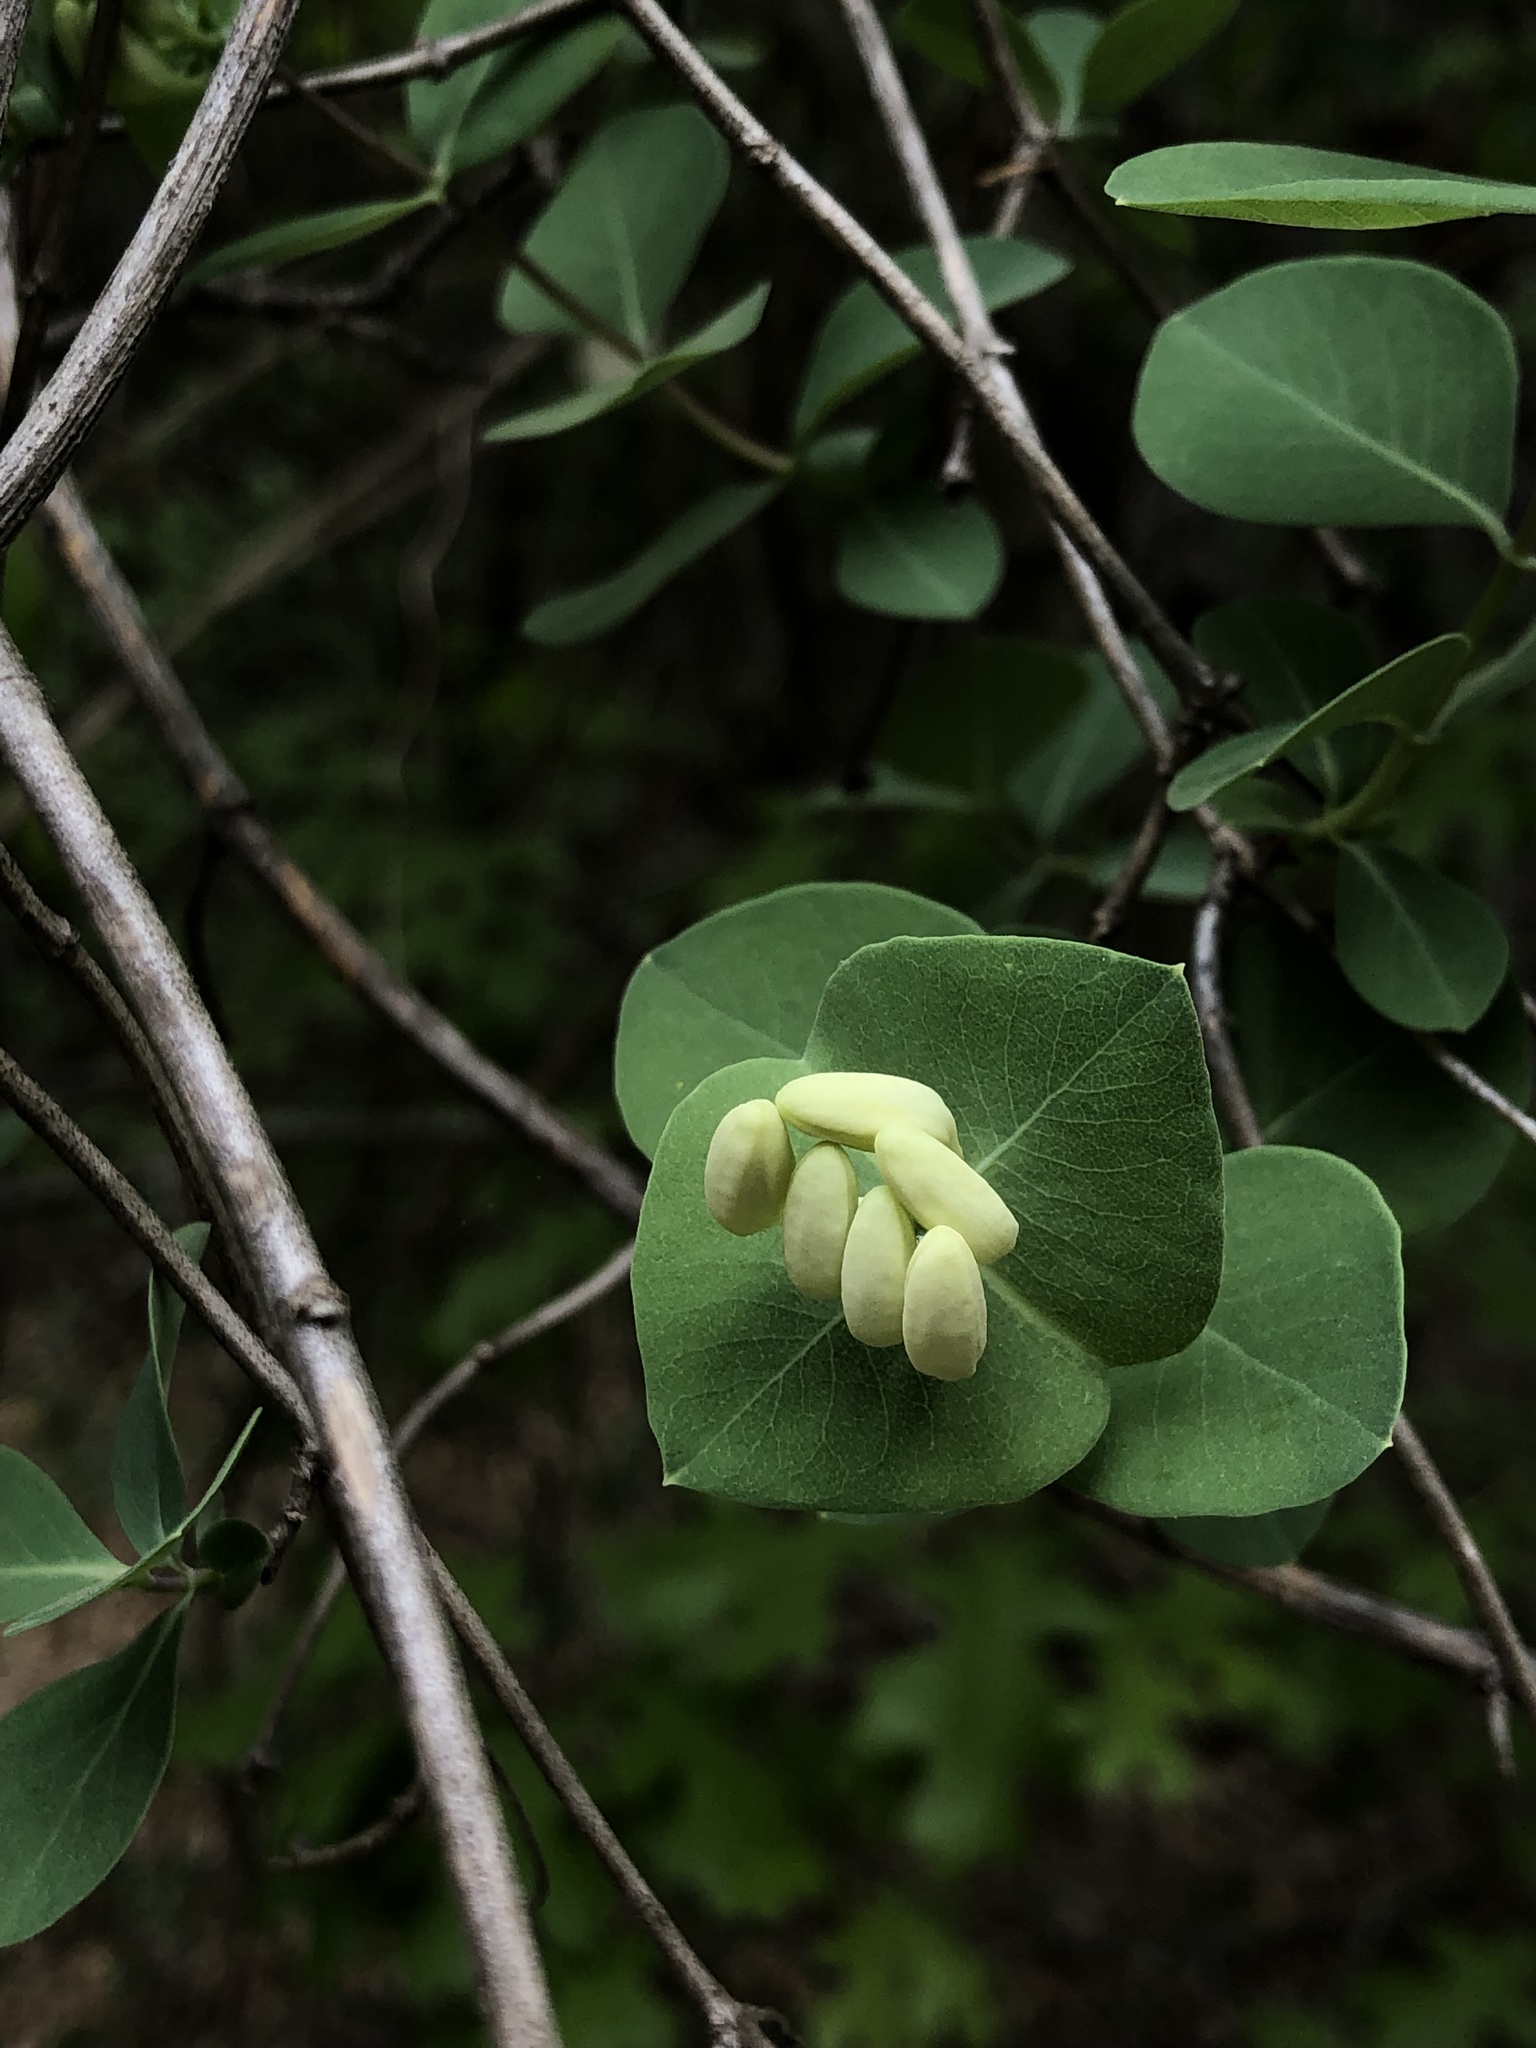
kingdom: Plantae
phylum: Tracheophyta
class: Magnoliopsida
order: Dipsacales
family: Caprifoliaceae
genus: Lonicera
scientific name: Lonicera albiflora
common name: White honeysuckle
